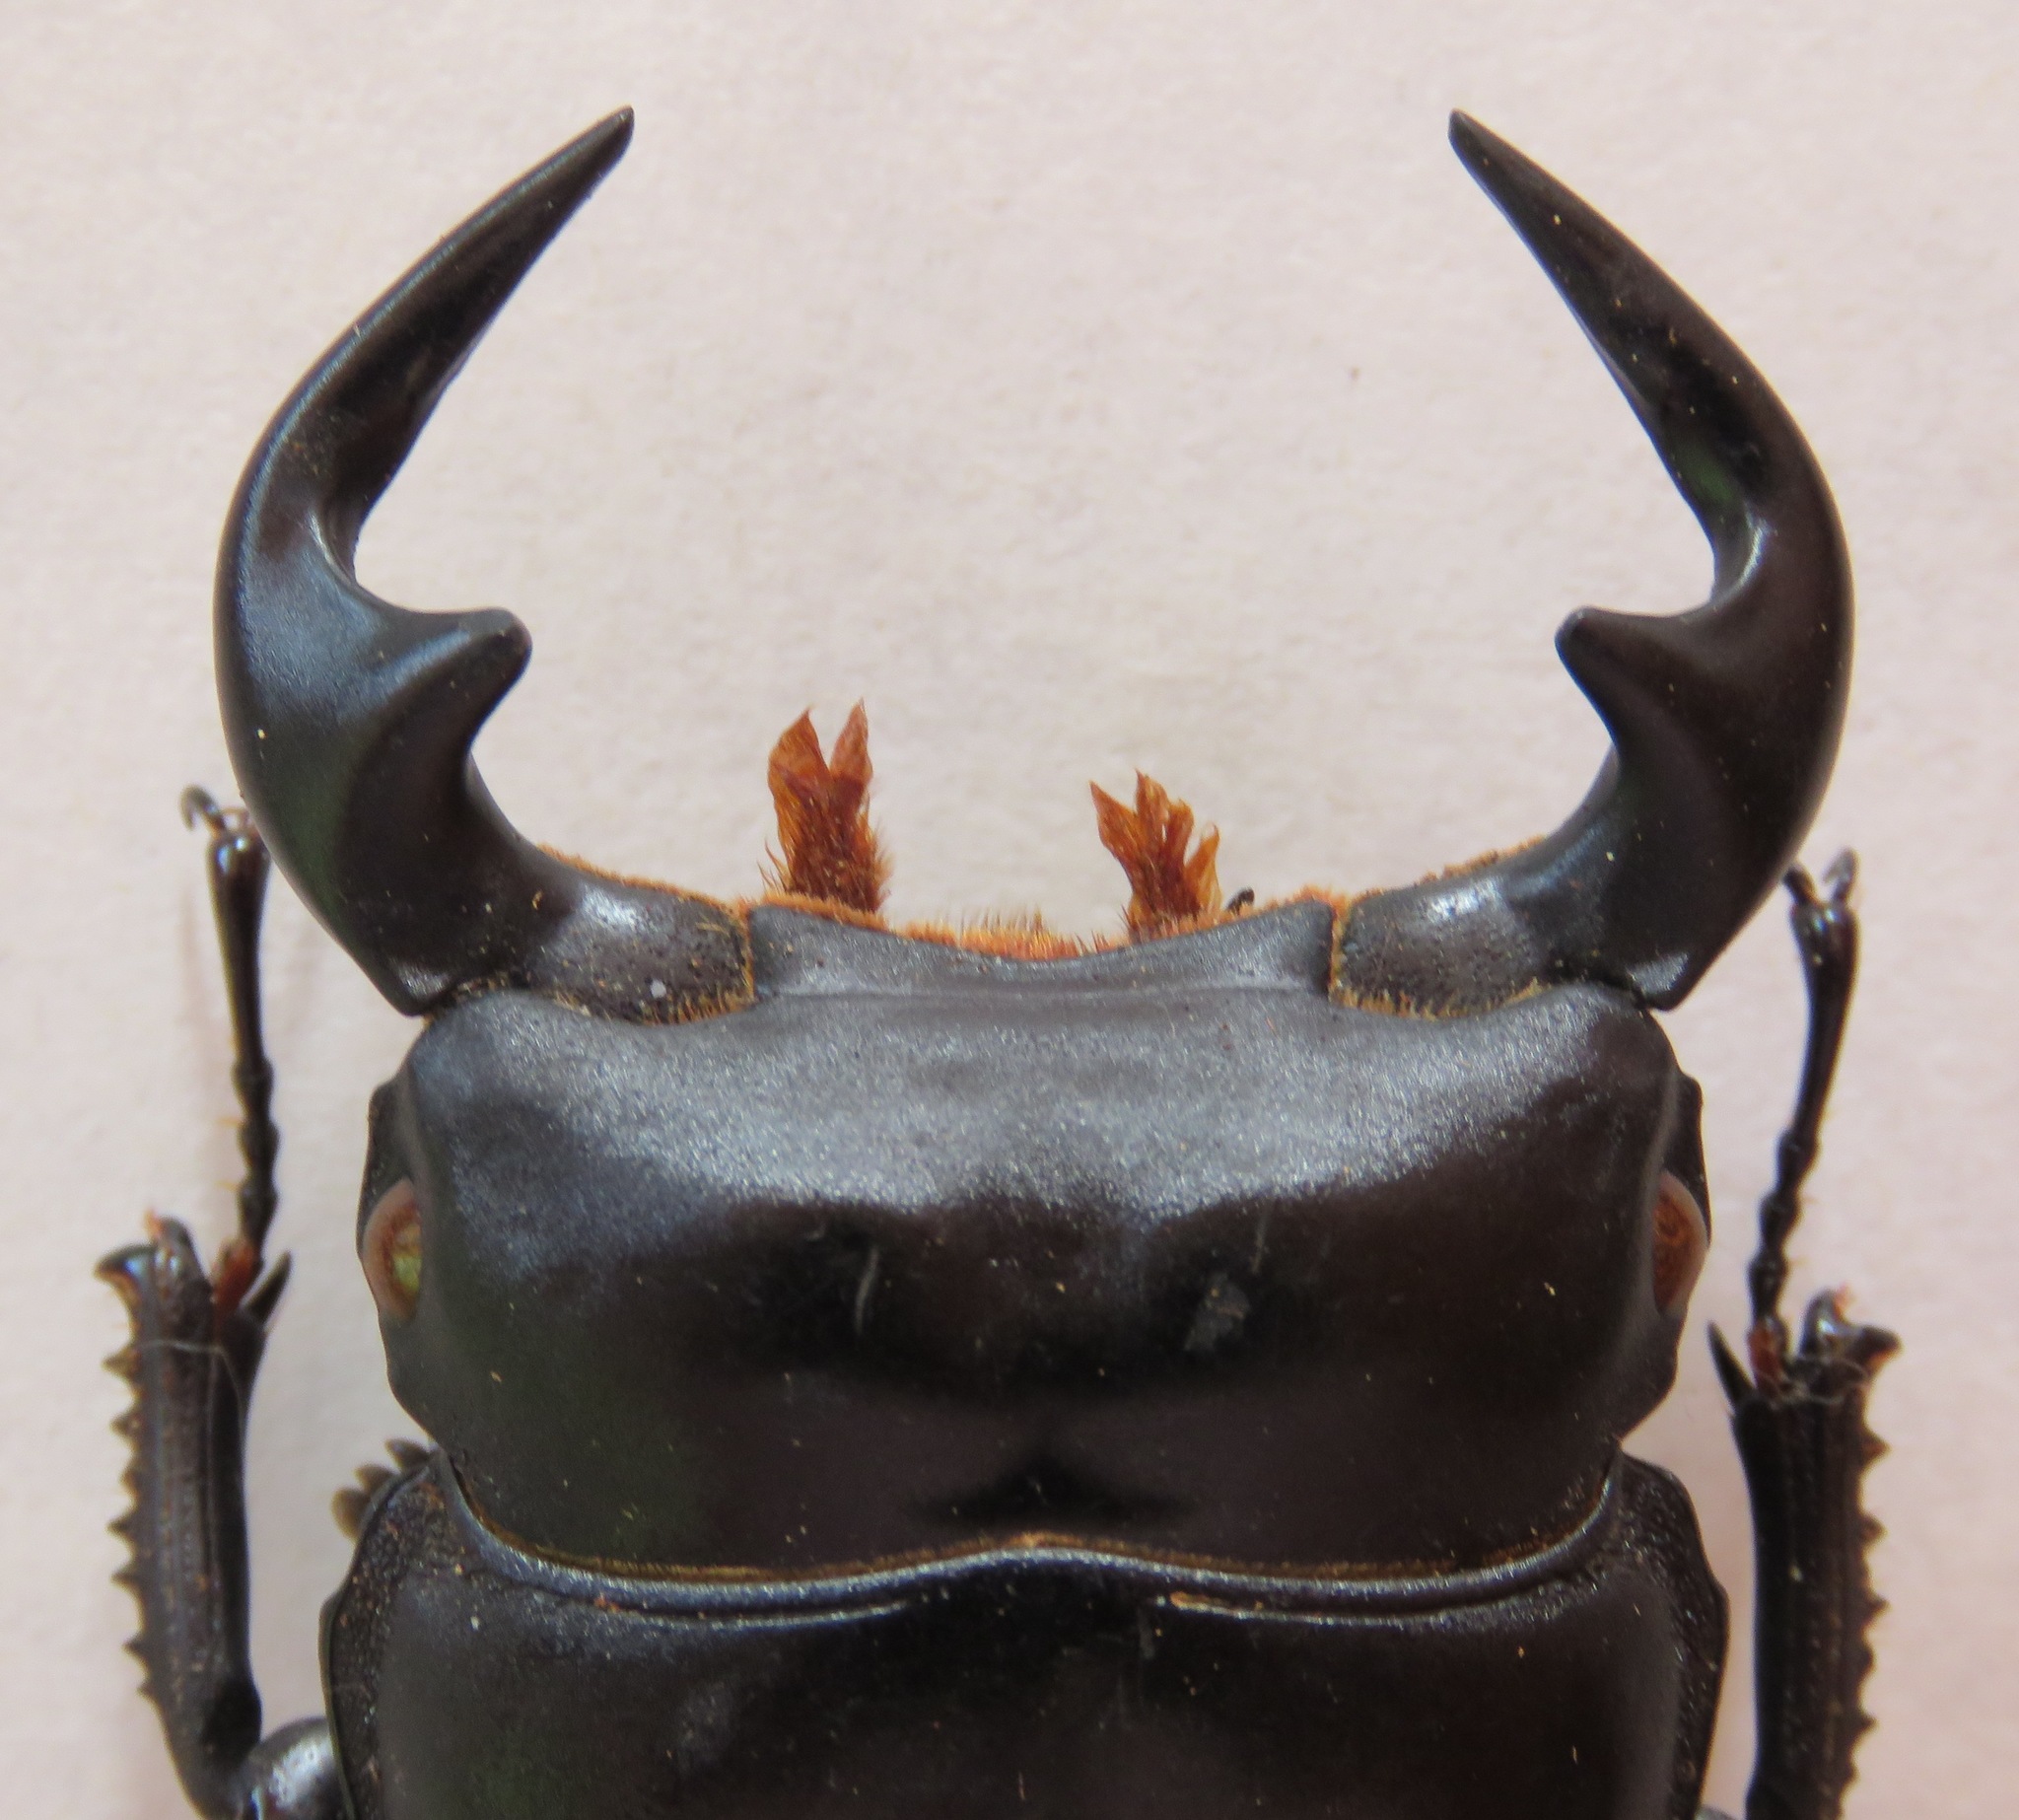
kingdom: Animalia
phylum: Arthropoda
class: Insecta
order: Coleoptera
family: Lucanidae
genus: Dorcus
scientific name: Dorcus antaeus
